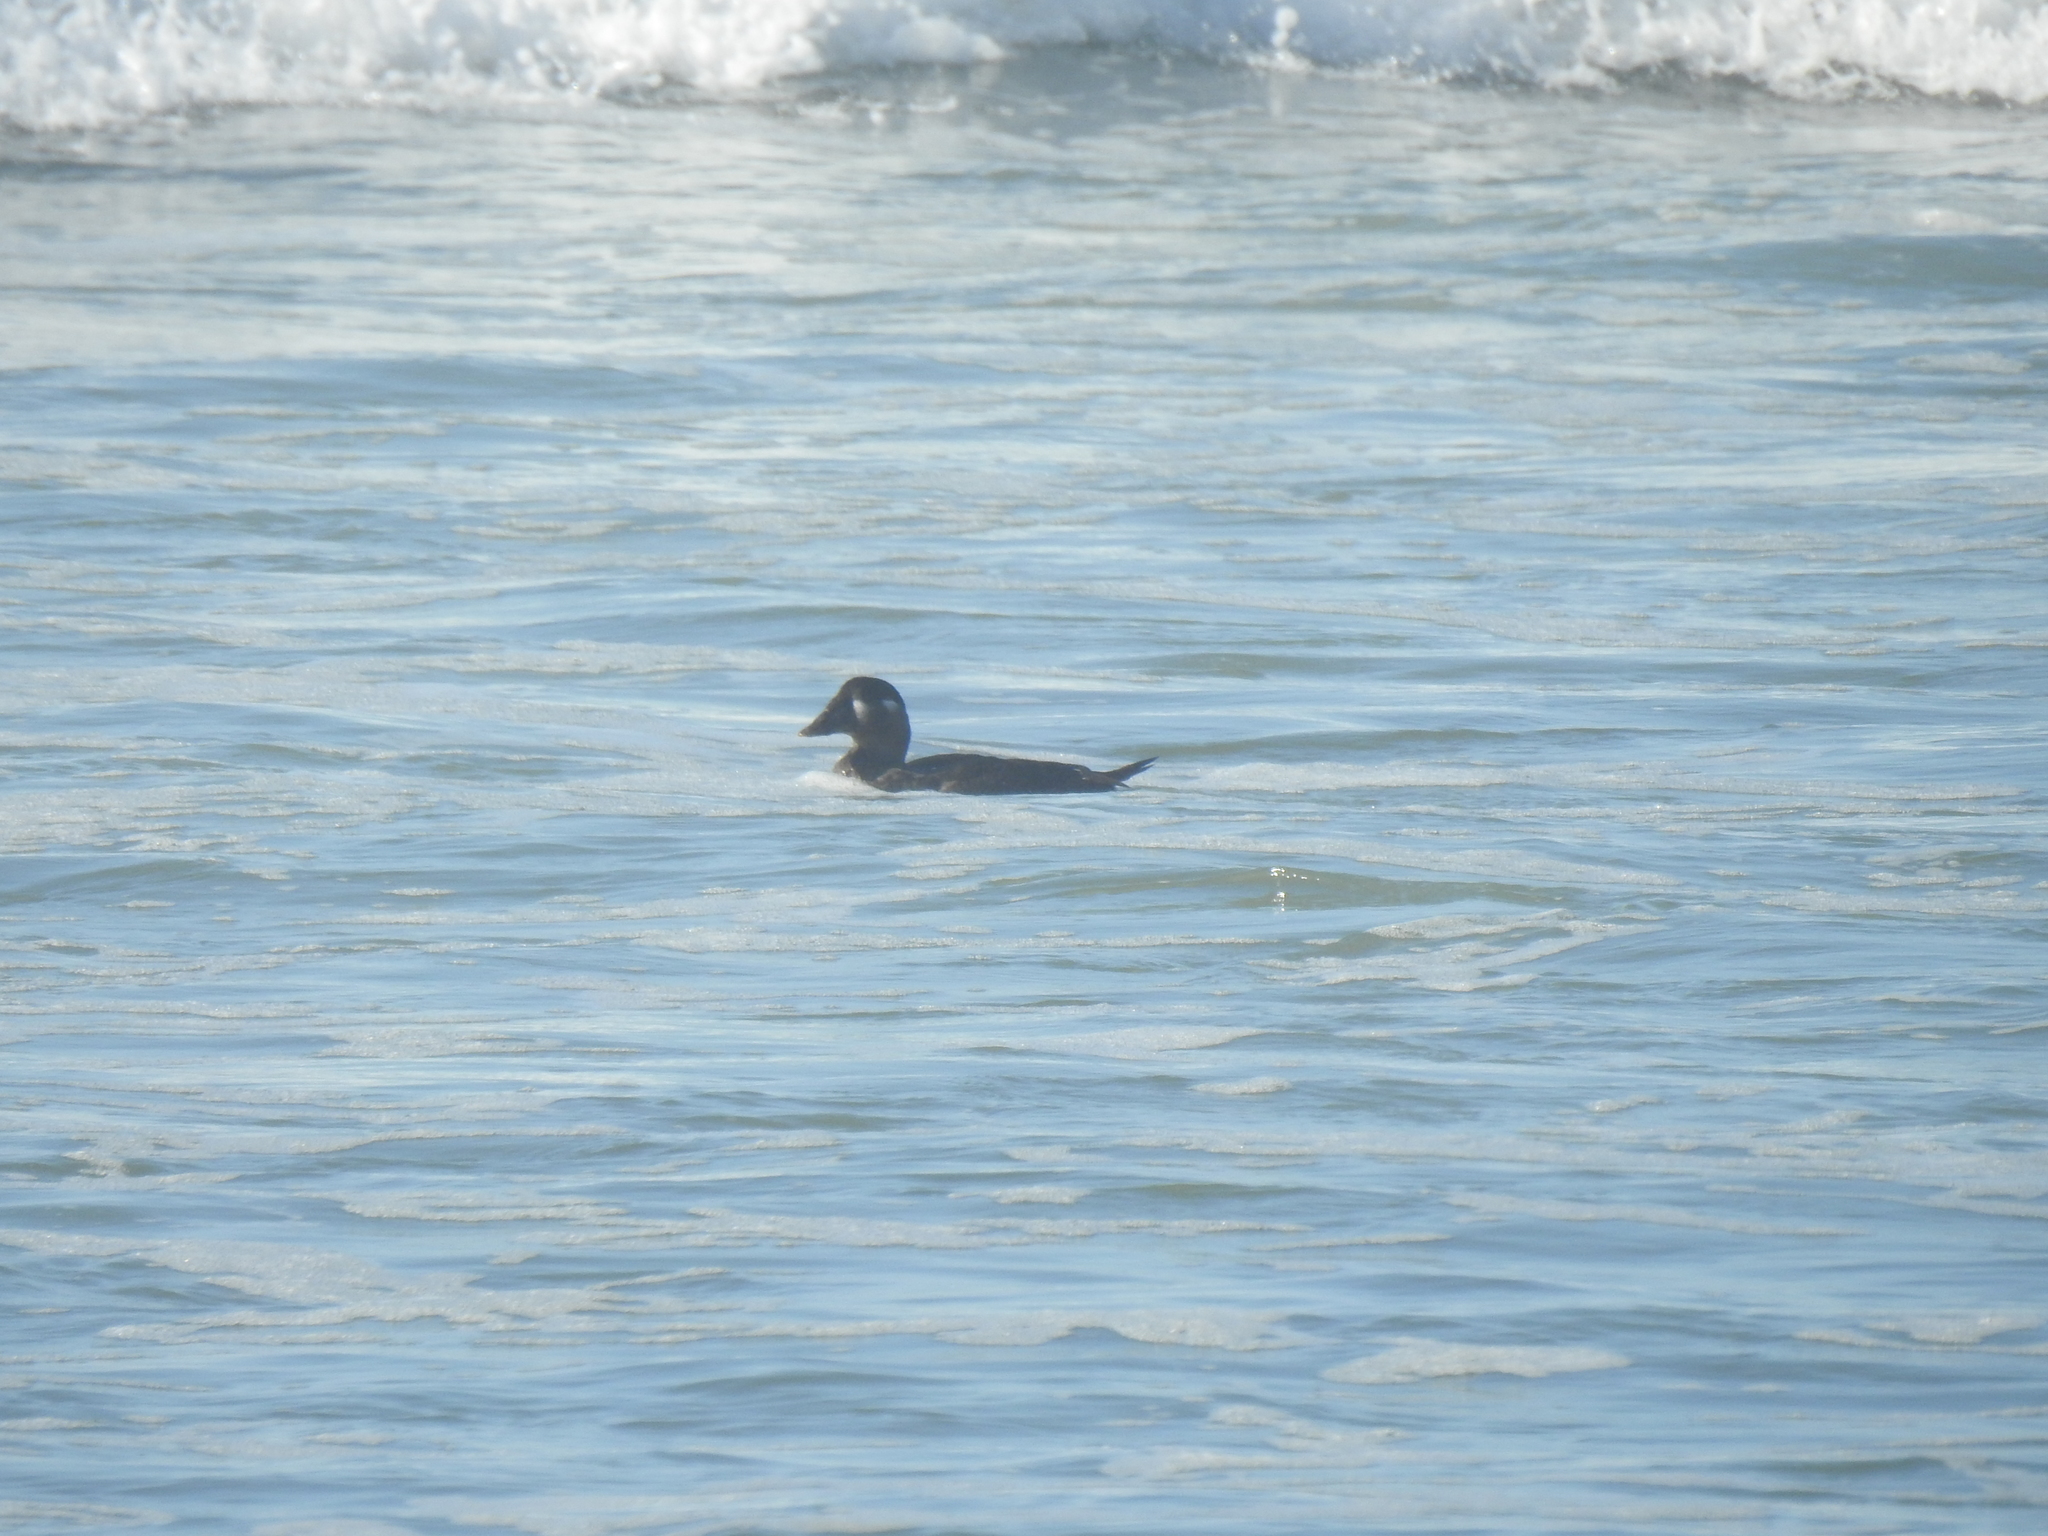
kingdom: Animalia
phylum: Chordata
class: Aves
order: Anseriformes
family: Anatidae
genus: Melanitta
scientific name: Melanitta perspicillata
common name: Surf scoter
